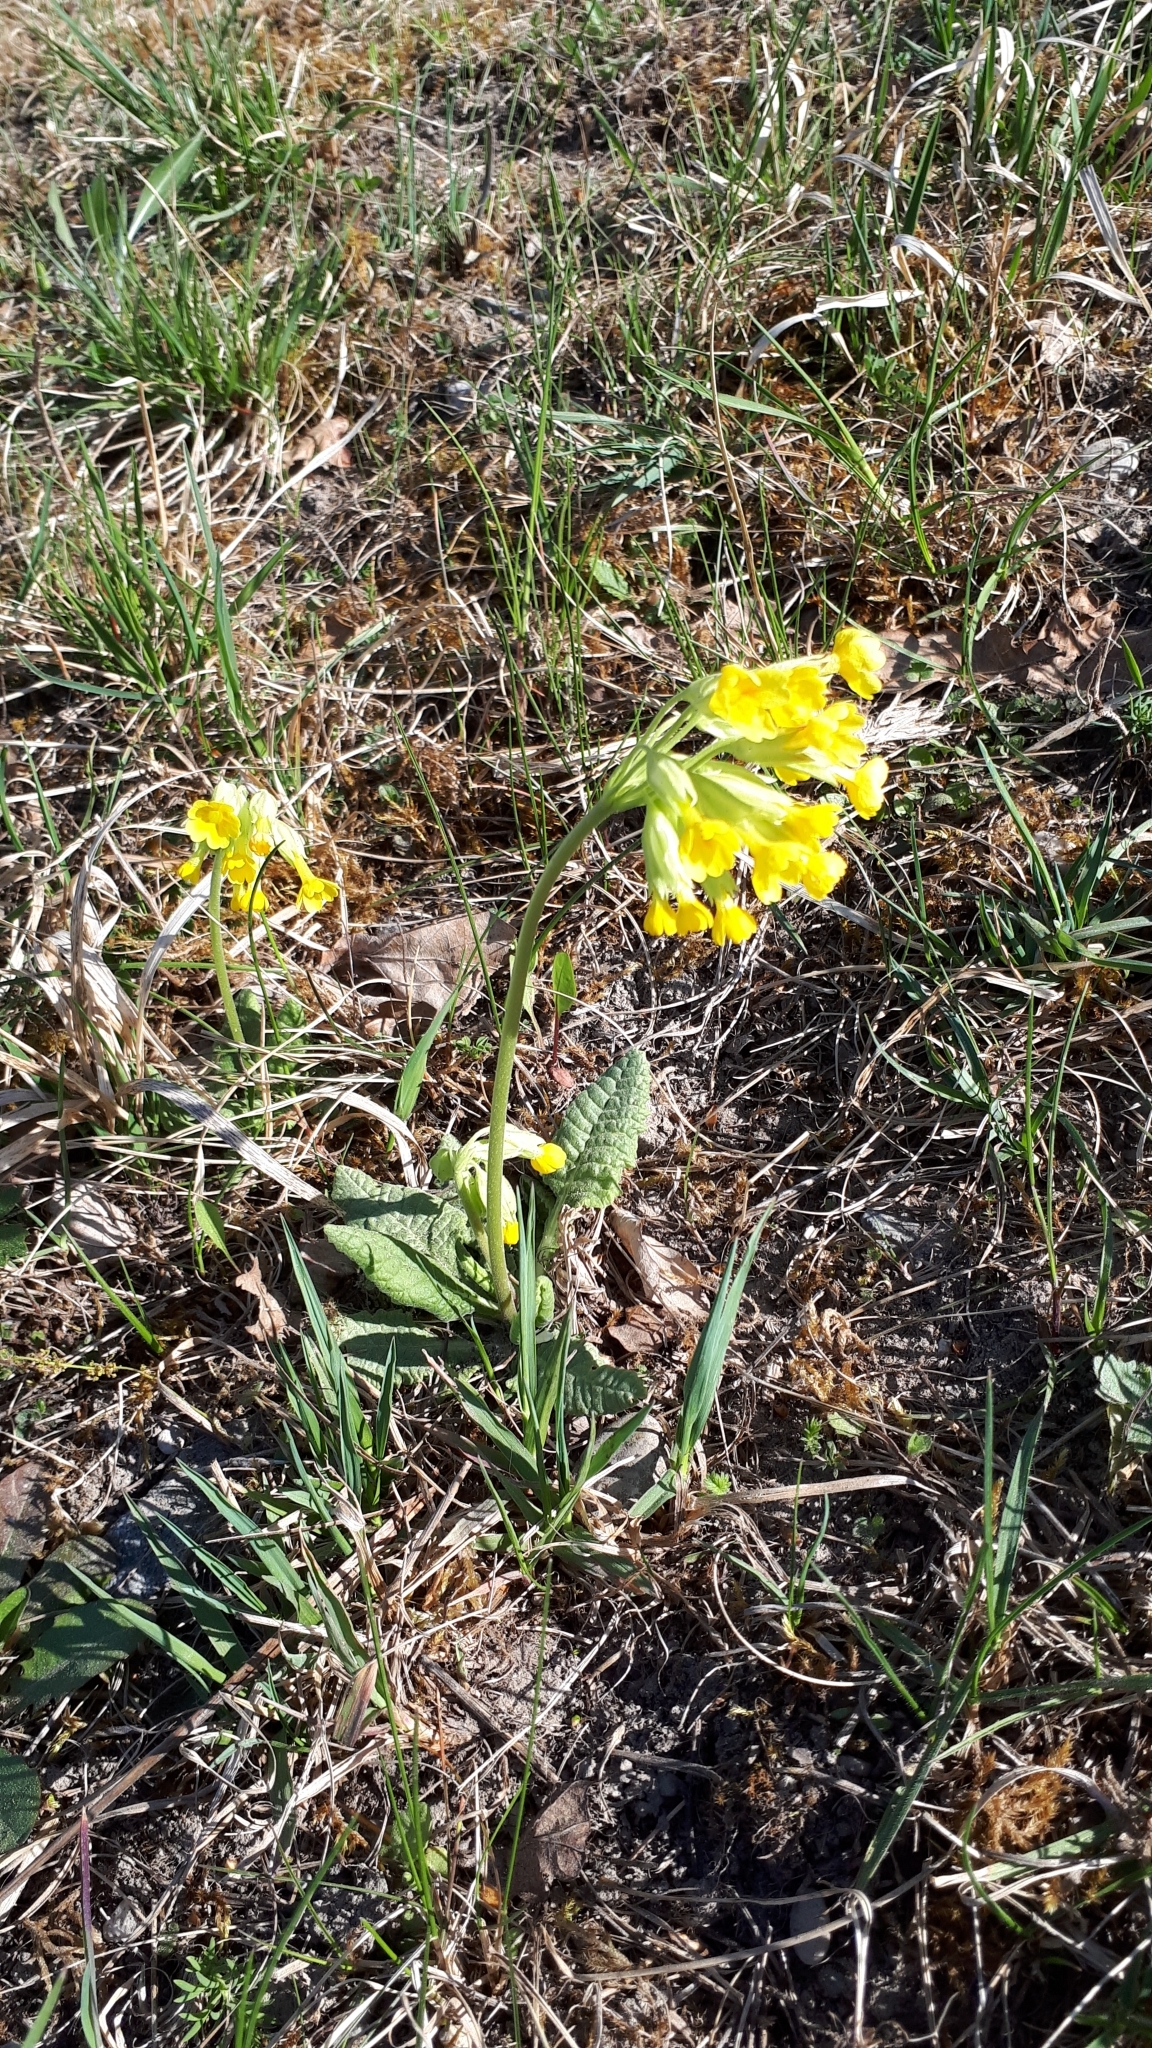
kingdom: Plantae
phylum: Tracheophyta
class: Magnoliopsida
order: Ericales
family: Primulaceae
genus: Primula
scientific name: Primula veris
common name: Cowslip
